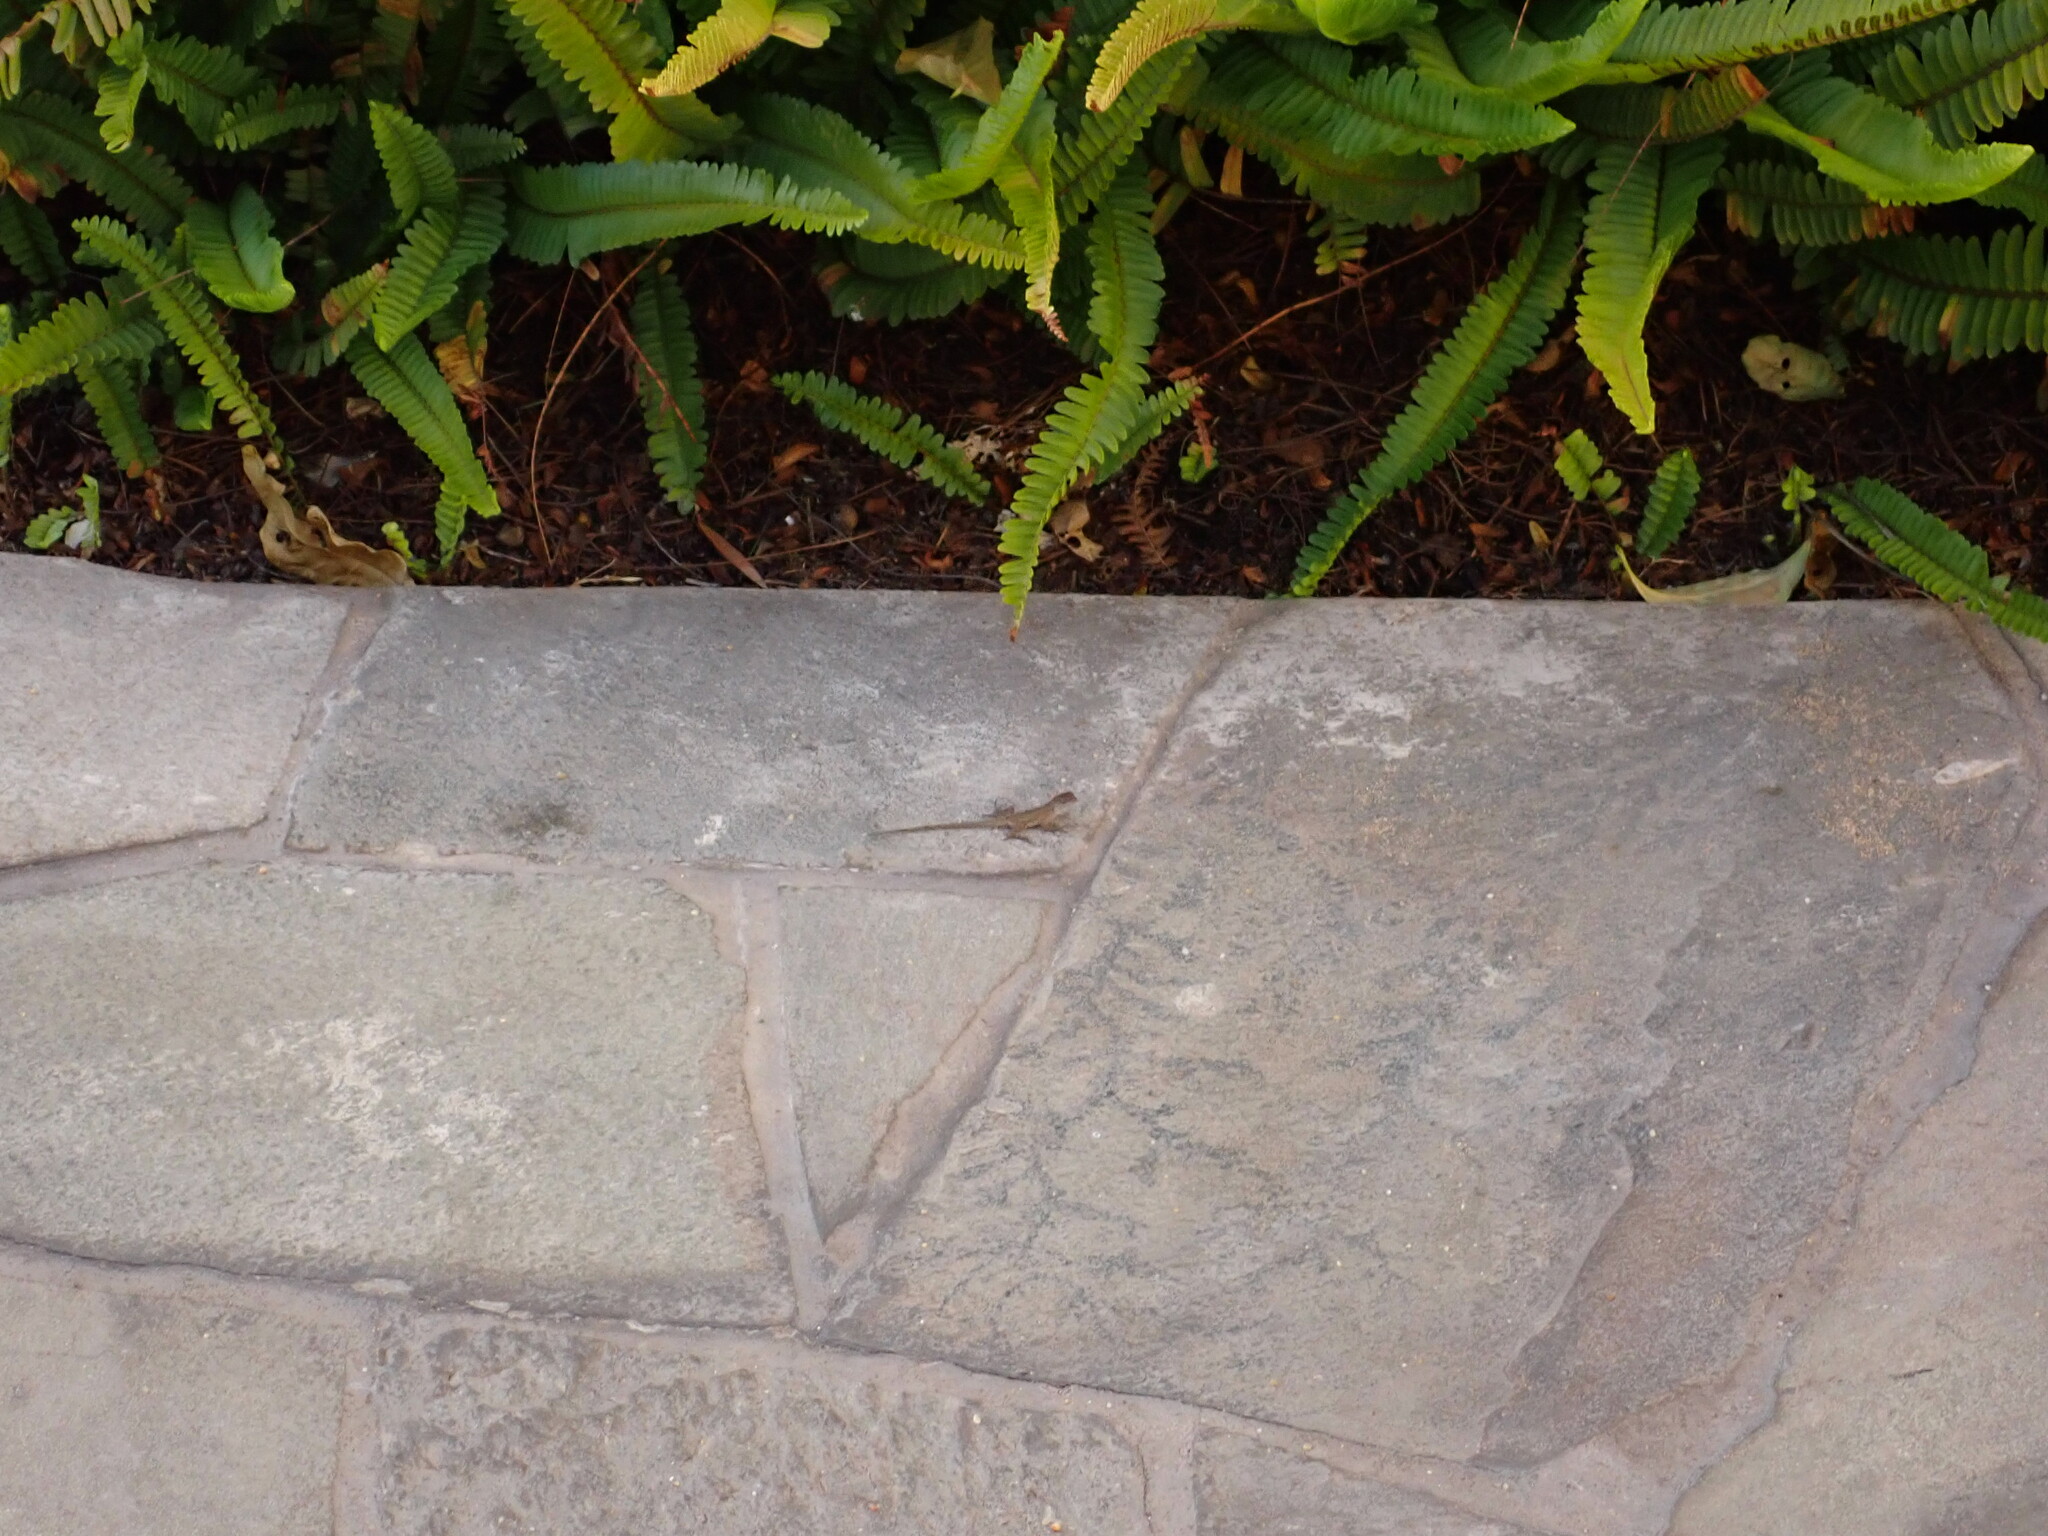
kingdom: Animalia
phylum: Chordata
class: Squamata
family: Dactyloidae
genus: Anolis
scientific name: Anolis sagrei
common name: Brown anole
